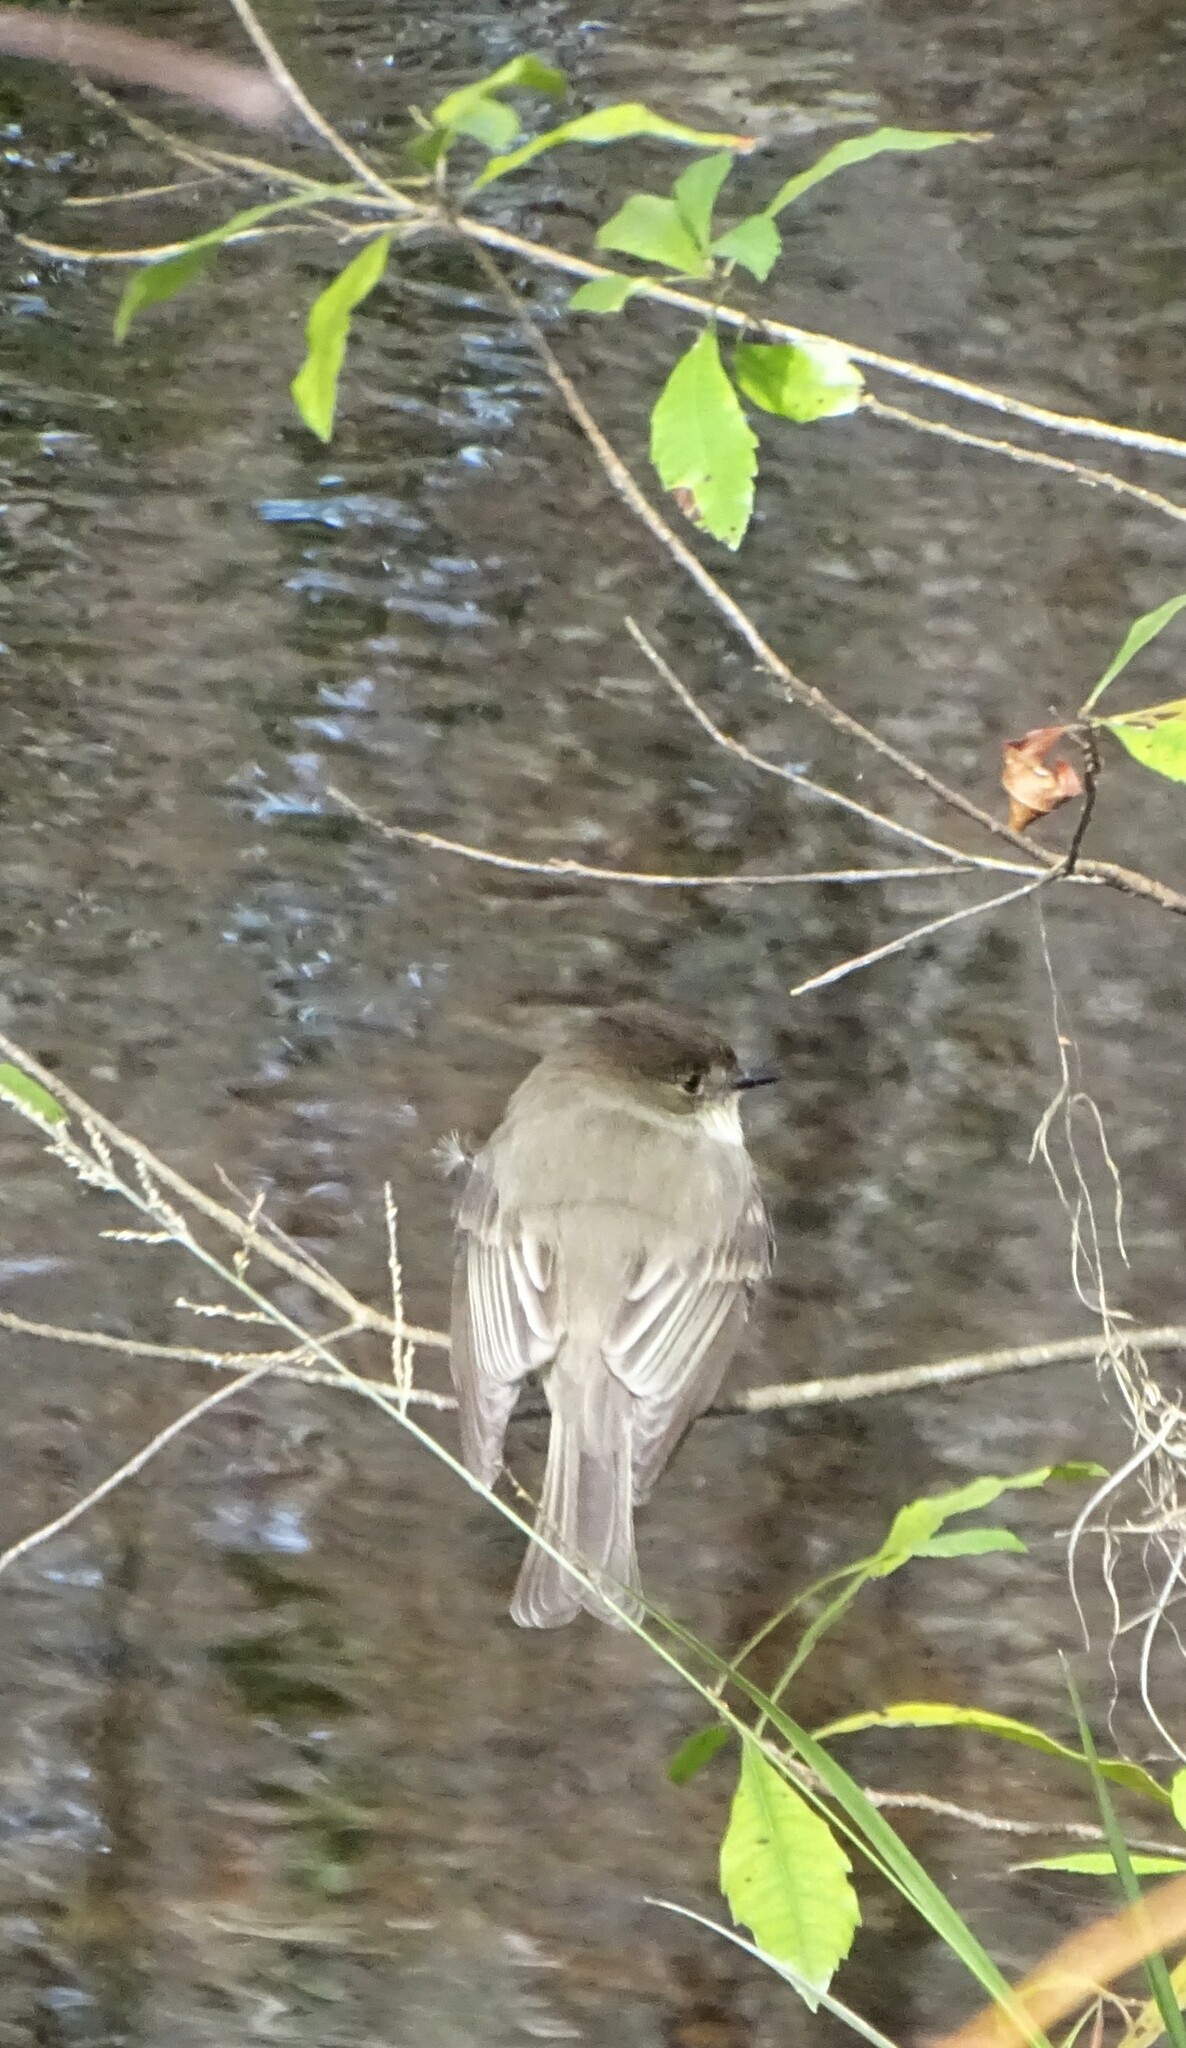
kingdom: Animalia
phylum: Chordata
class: Aves
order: Passeriformes
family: Tyrannidae
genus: Sayornis
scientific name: Sayornis phoebe
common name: Eastern phoebe
